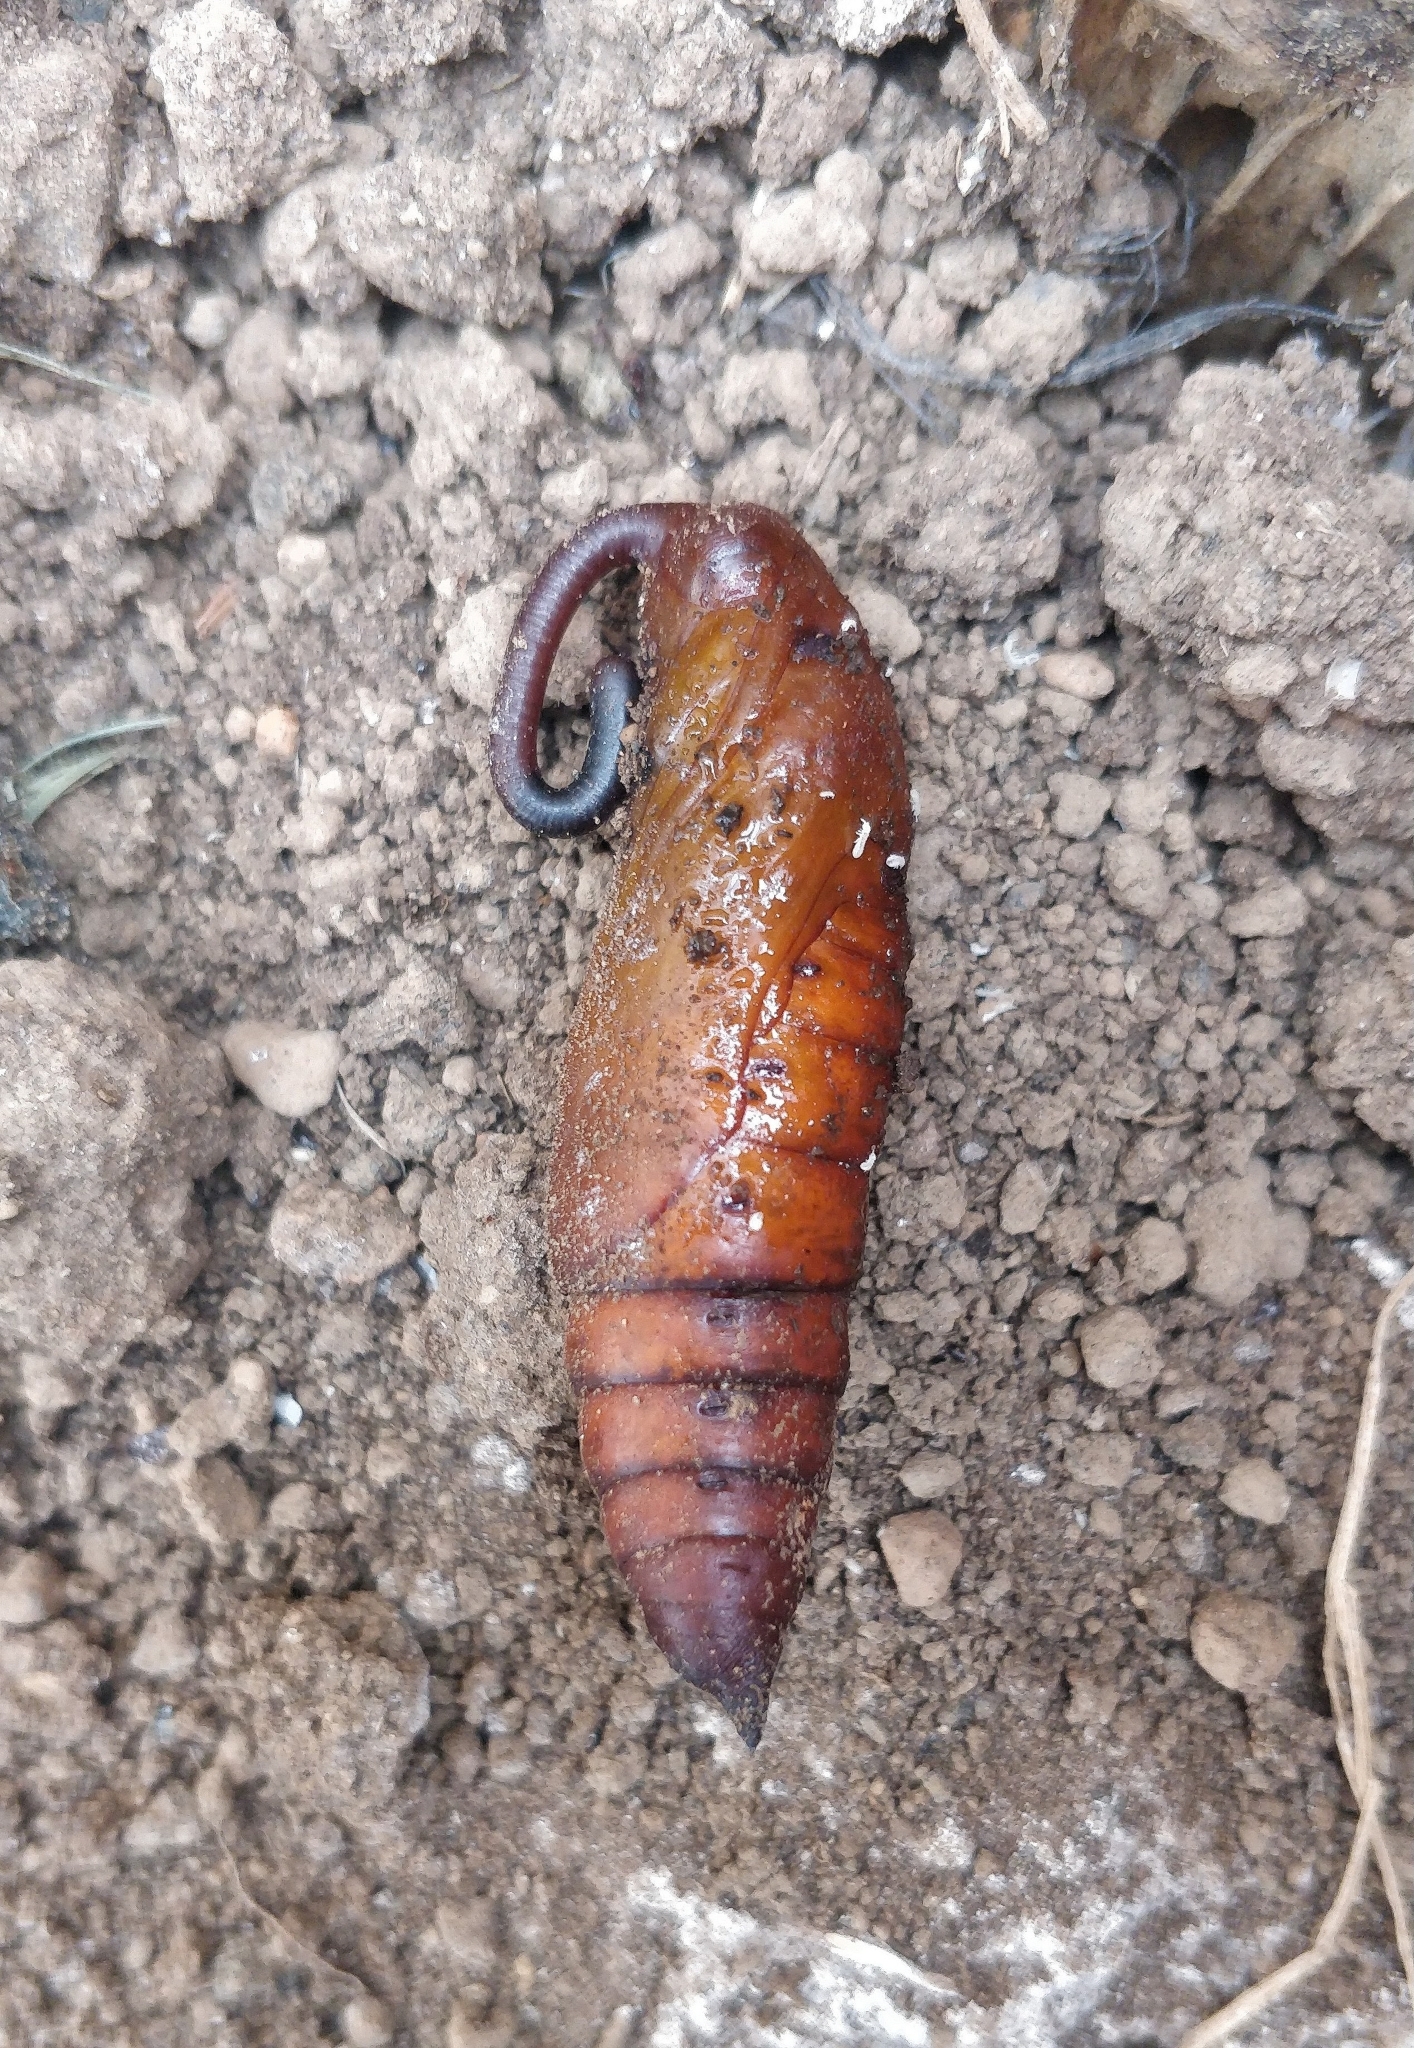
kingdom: Animalia
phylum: Arthropoda
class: Insecta
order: Lepidoptera
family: Sphingidae
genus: Agrius
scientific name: Agrius convolvuli
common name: Convolvulus hawkmoth
